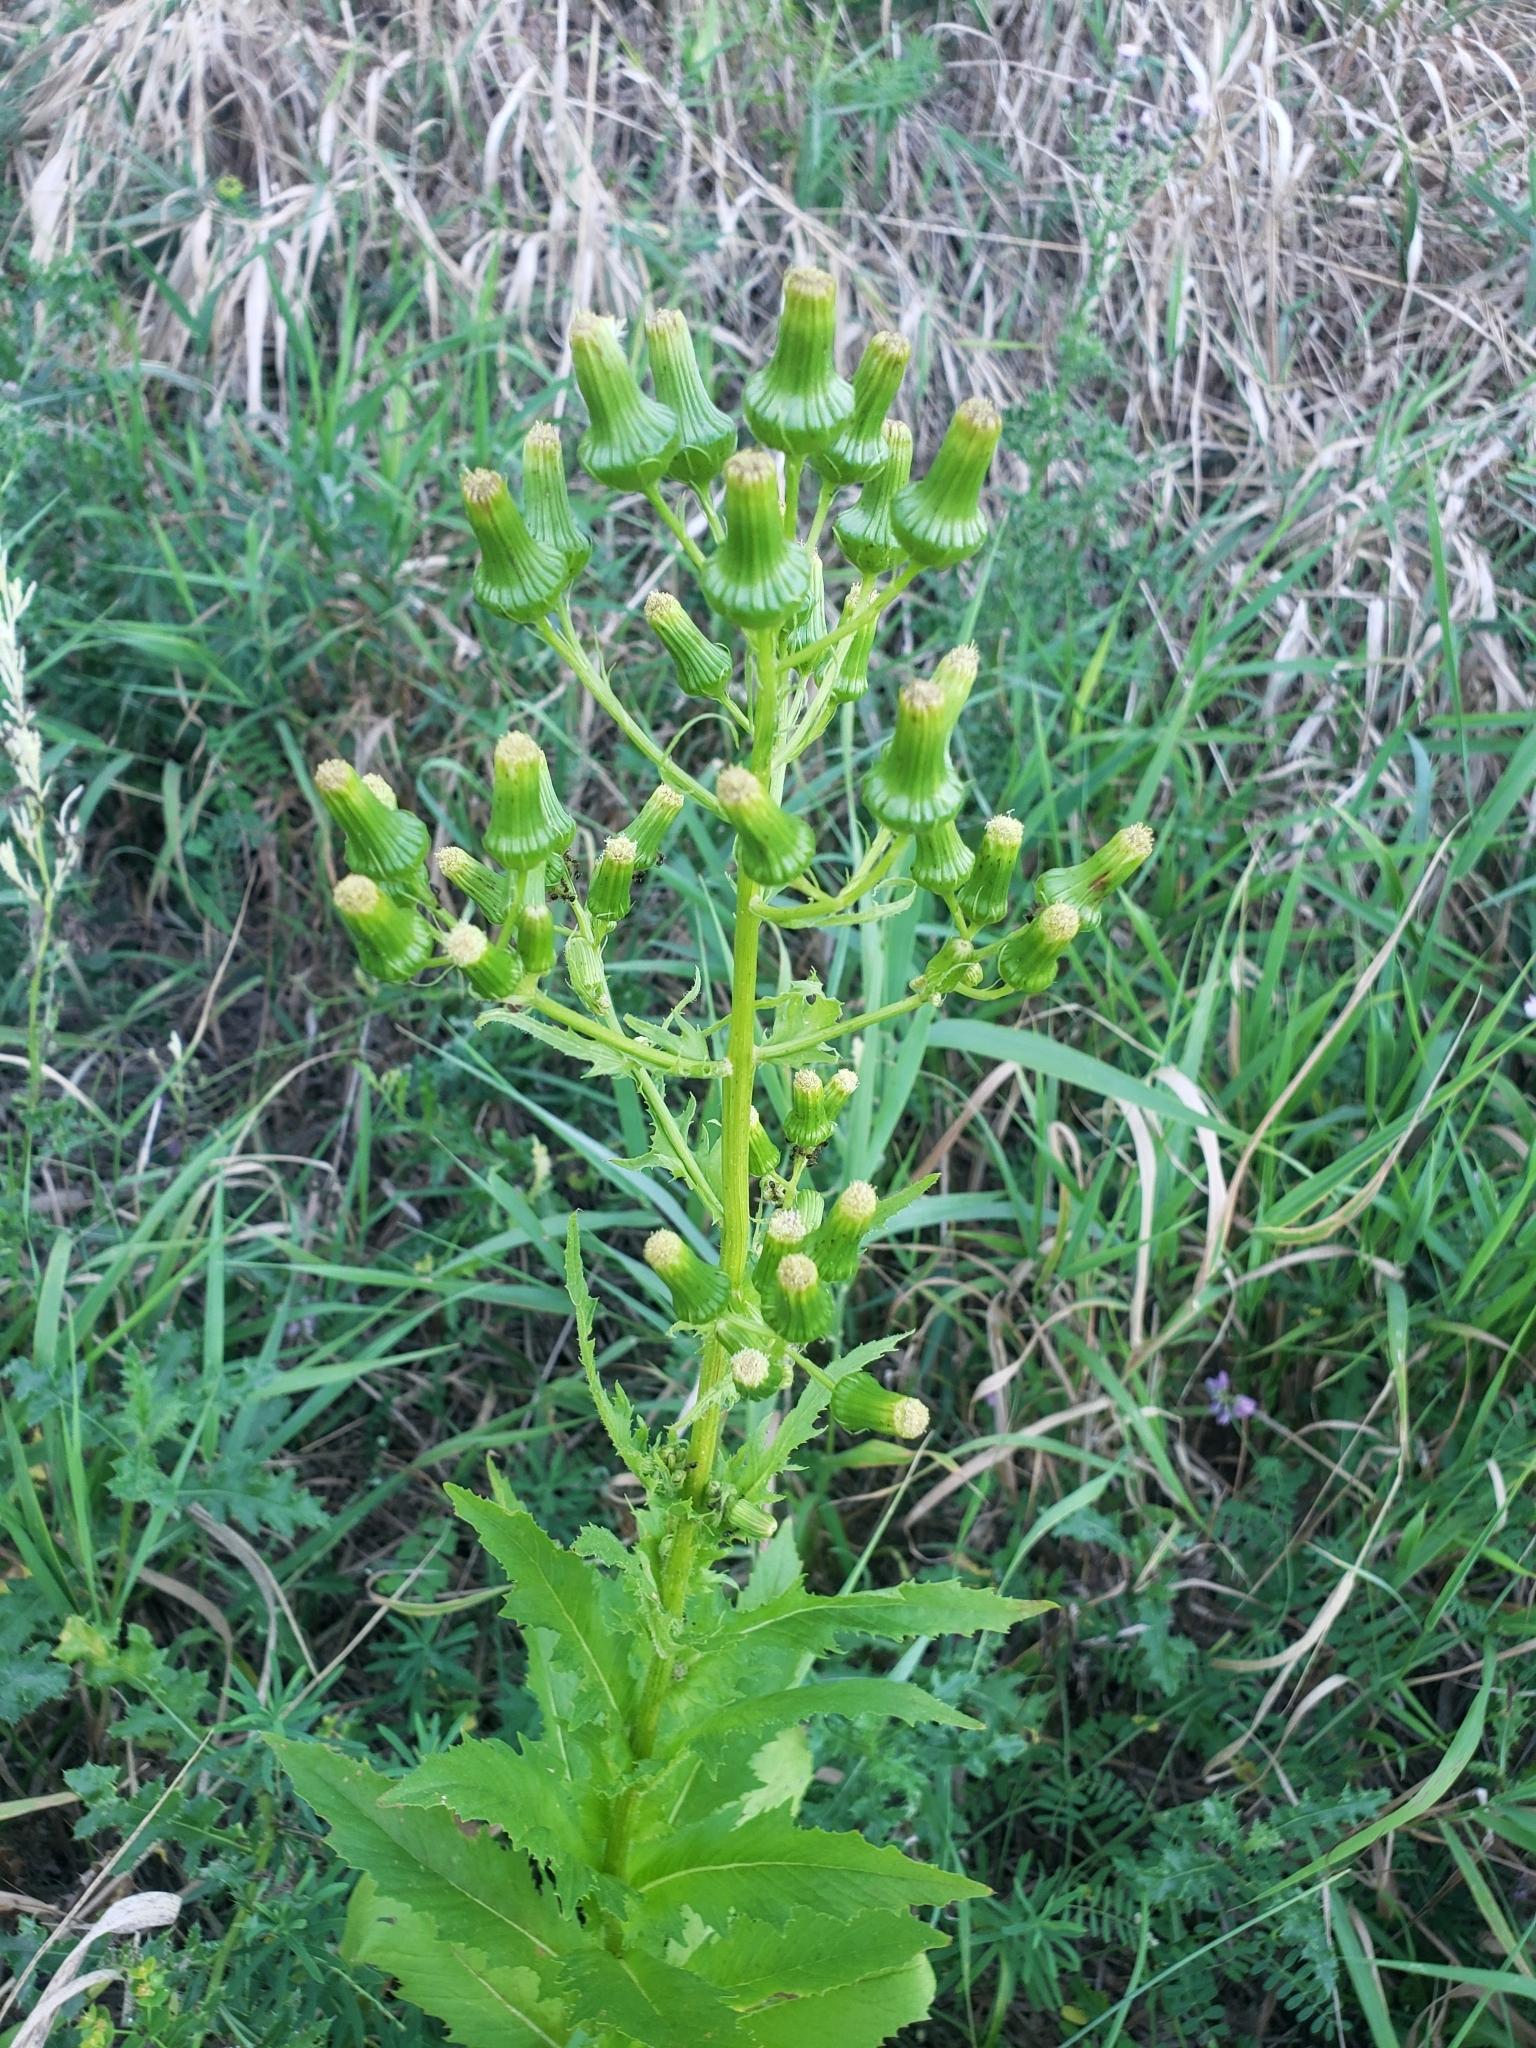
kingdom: Plantae
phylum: Tracheophyta
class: Magnoliopsida
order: Asterales
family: Asteraceae
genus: Erechtites
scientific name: Erechtites hieraciifolius
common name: American burnweed
